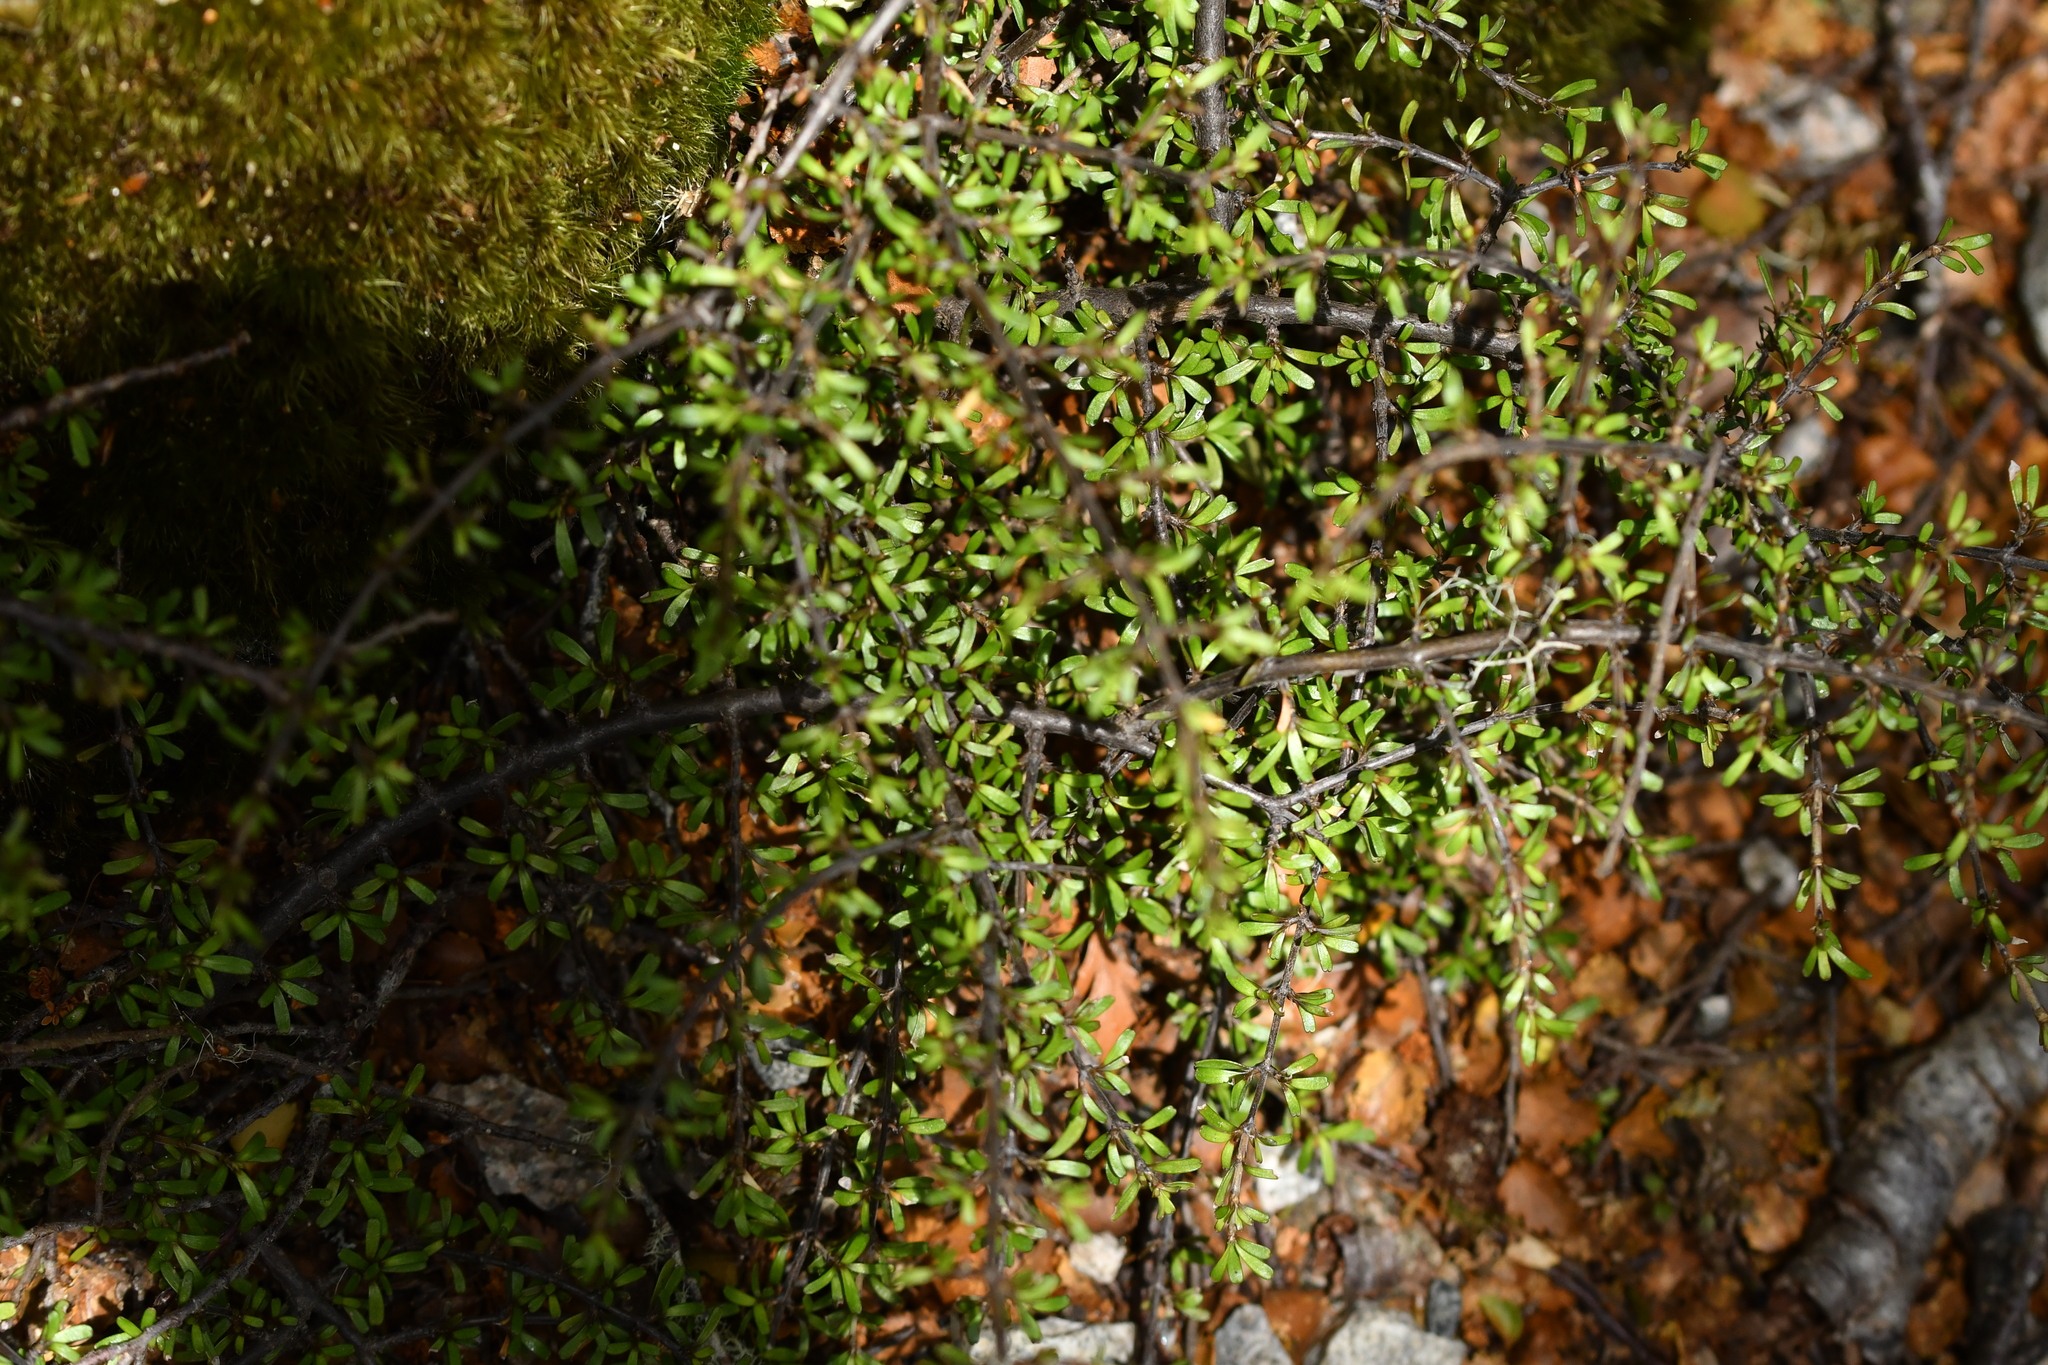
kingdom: Plantae
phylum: Tracheophyta
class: Magnoliopsida
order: Gentianales
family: Rubiaceae
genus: Coprosma
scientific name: Coprosma cuneata
